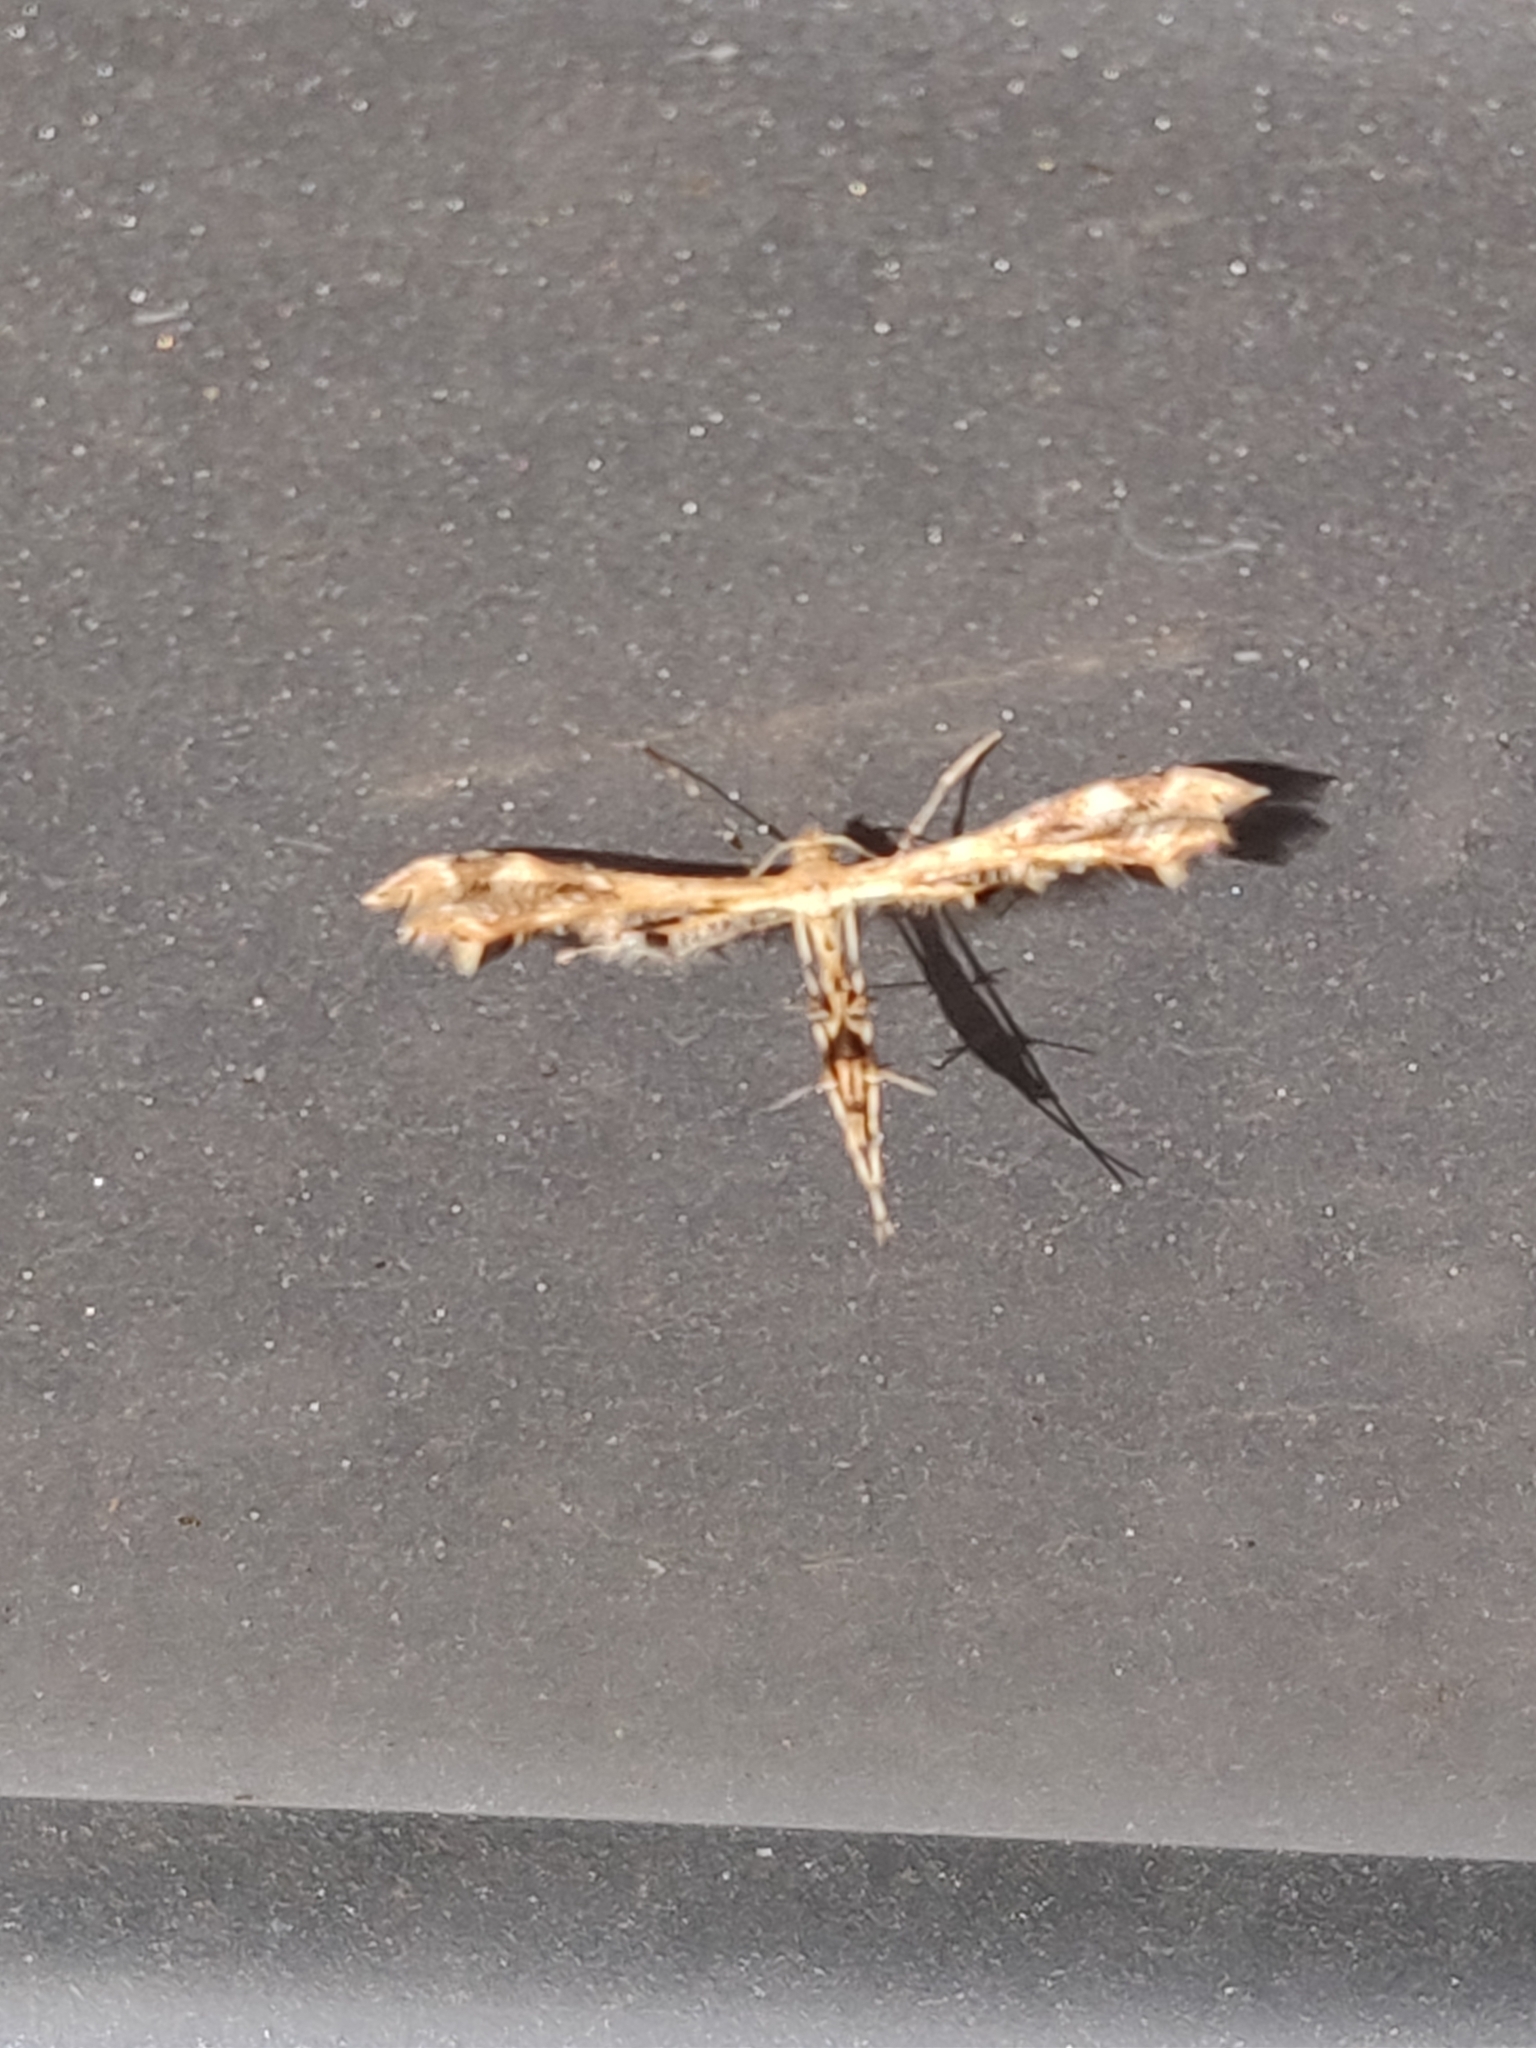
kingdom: Animalia
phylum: Arthropoda
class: Insecta
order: Lepidoptera
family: Pterophoridae
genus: Sphenarches
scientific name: Sphenarches anisodactylus
